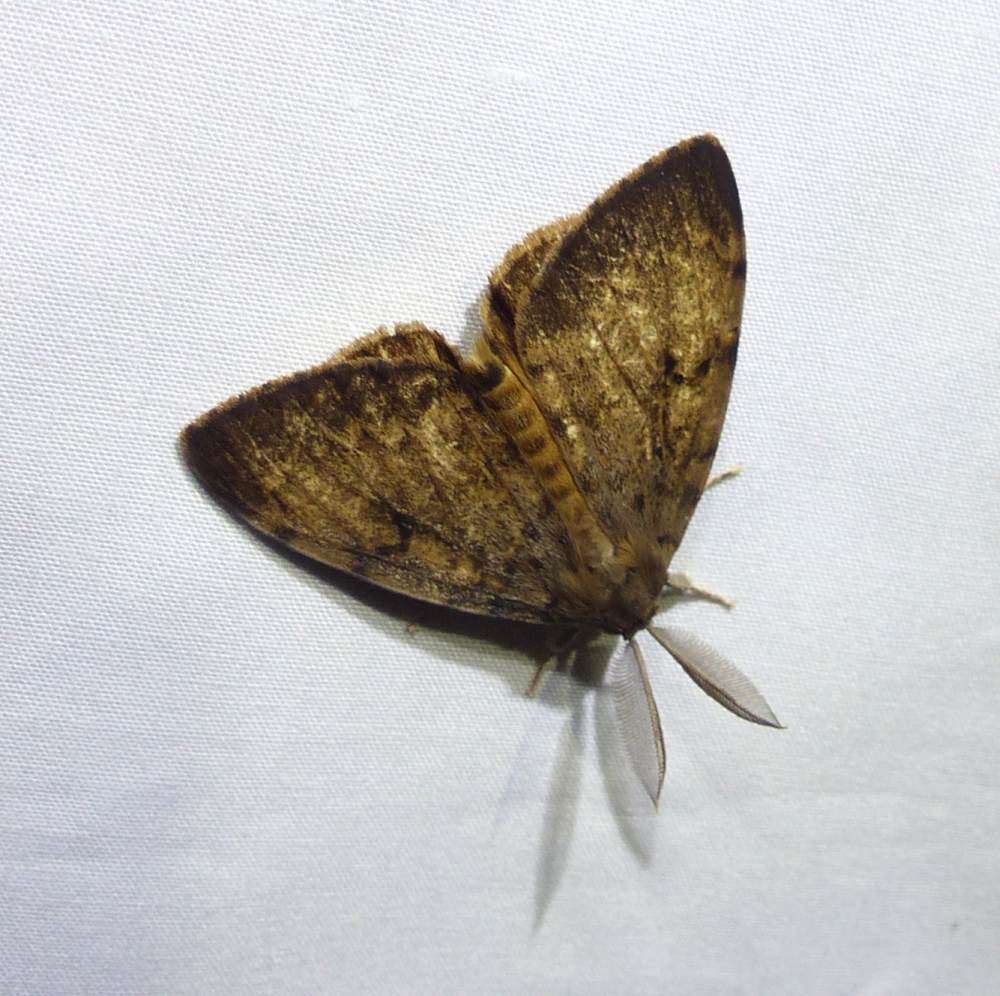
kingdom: Animalia
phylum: Arthropoda
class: Insecta
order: Lepidoptera
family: Erebidae
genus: Lymantria
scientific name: Lymantria dispar
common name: Gypsy moth
